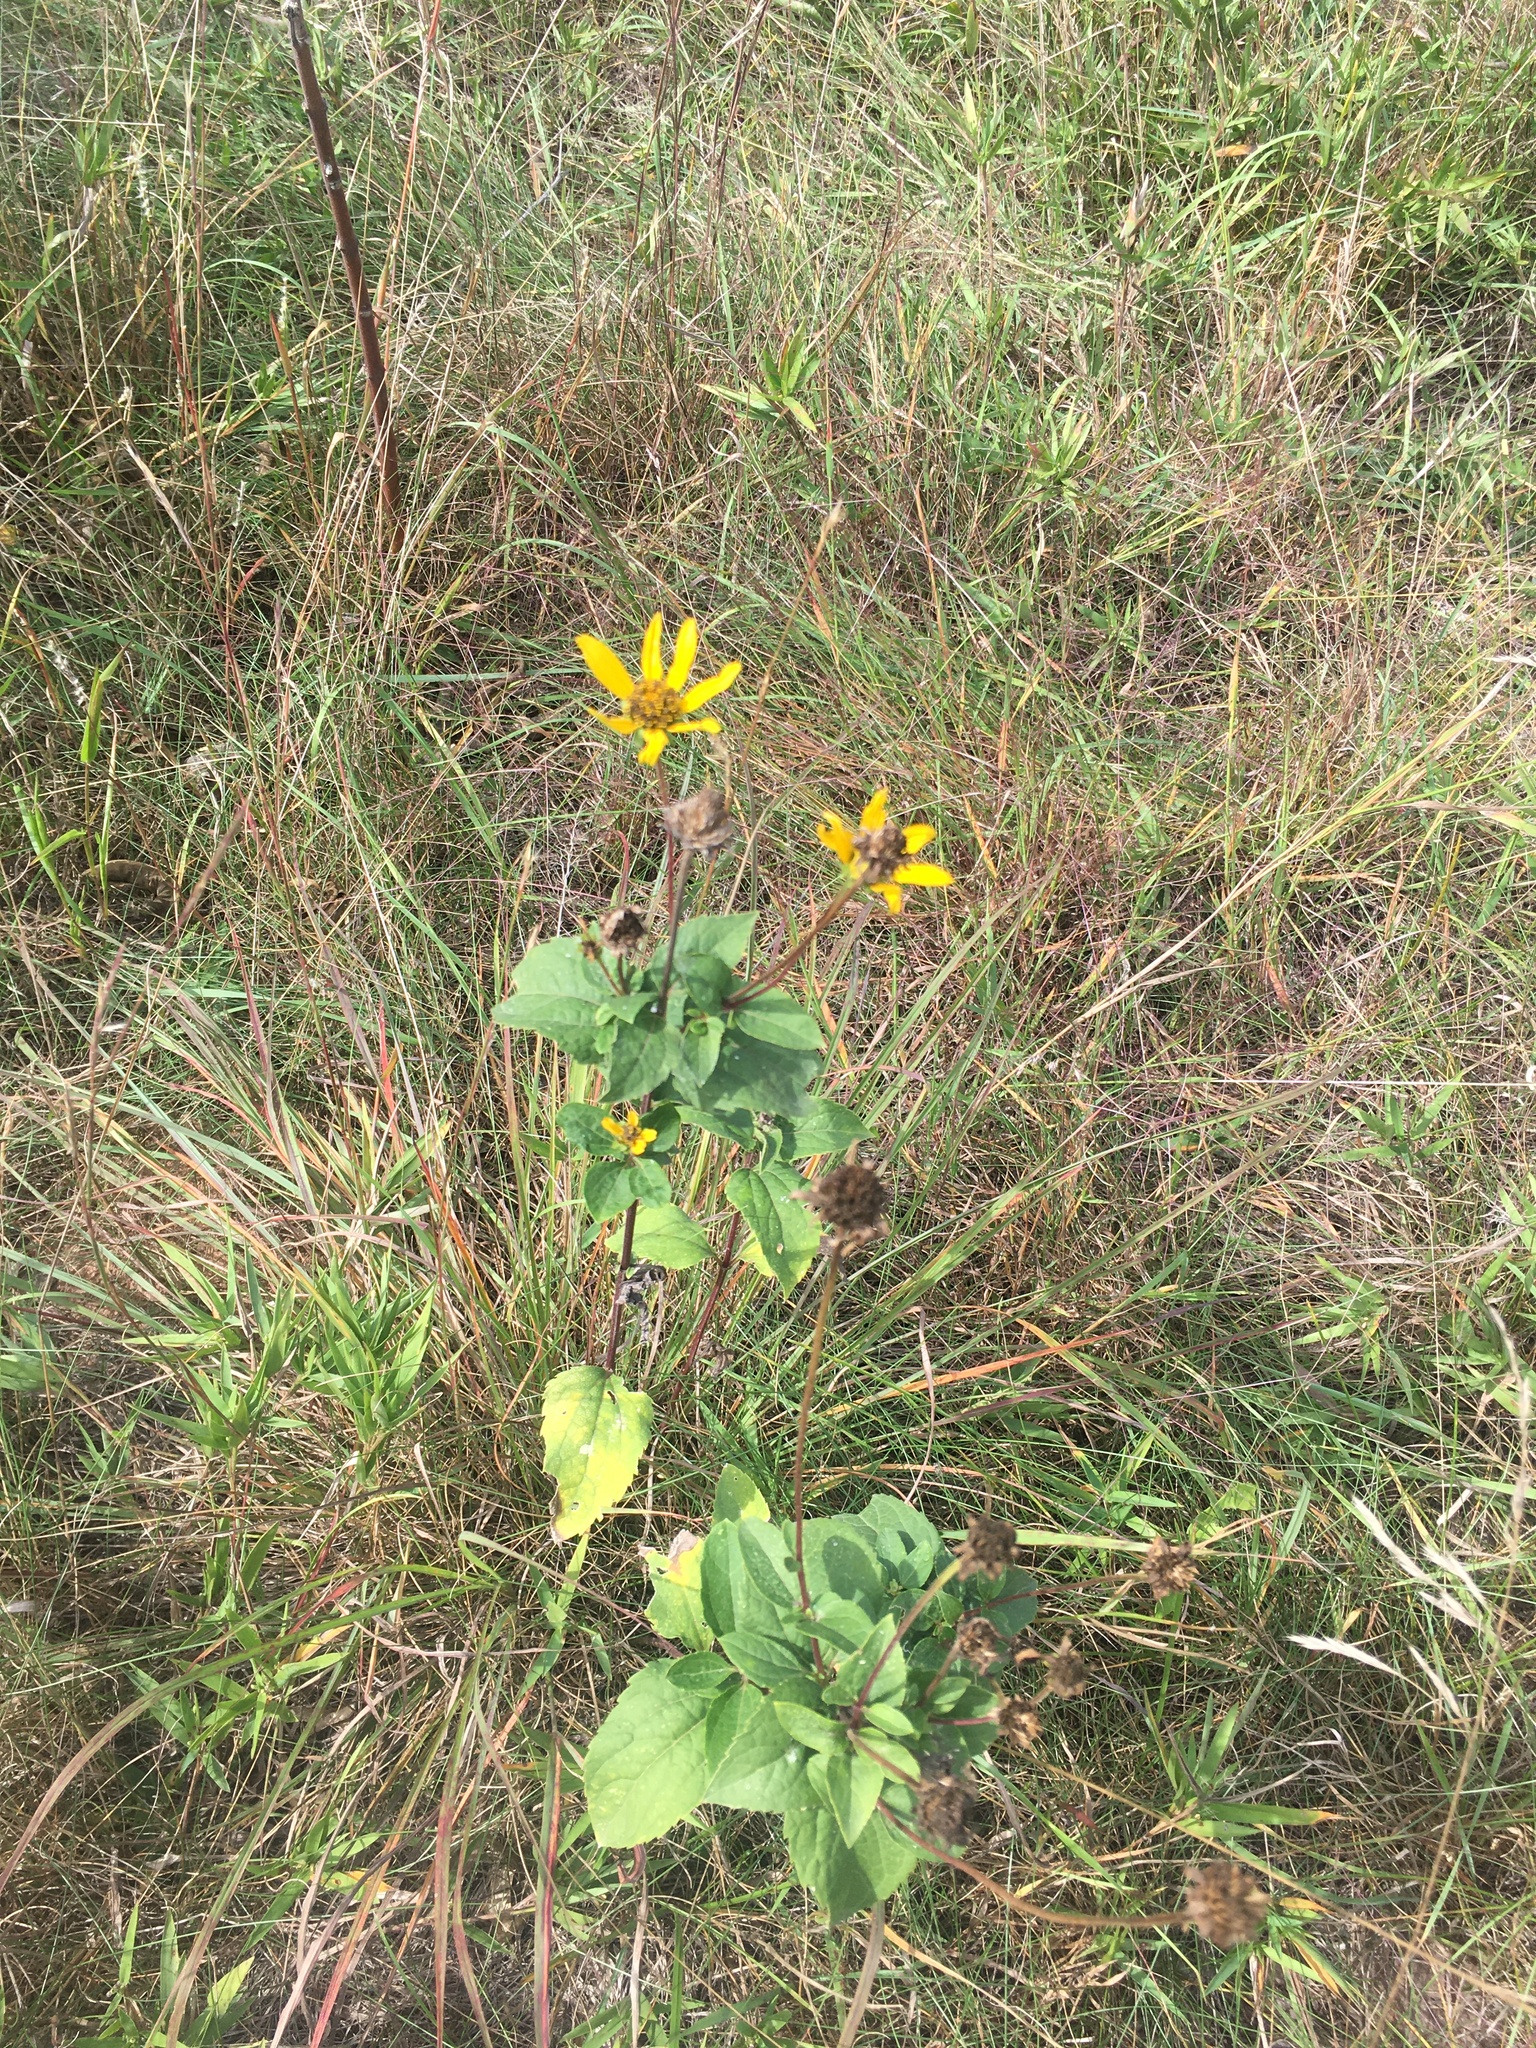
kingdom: Plantae
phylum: Tracheophyta
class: Magnoliopsida
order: Asterales
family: Asteraceae
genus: Heliopsis
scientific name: Heliopsis helianthoides
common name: False sunflower
